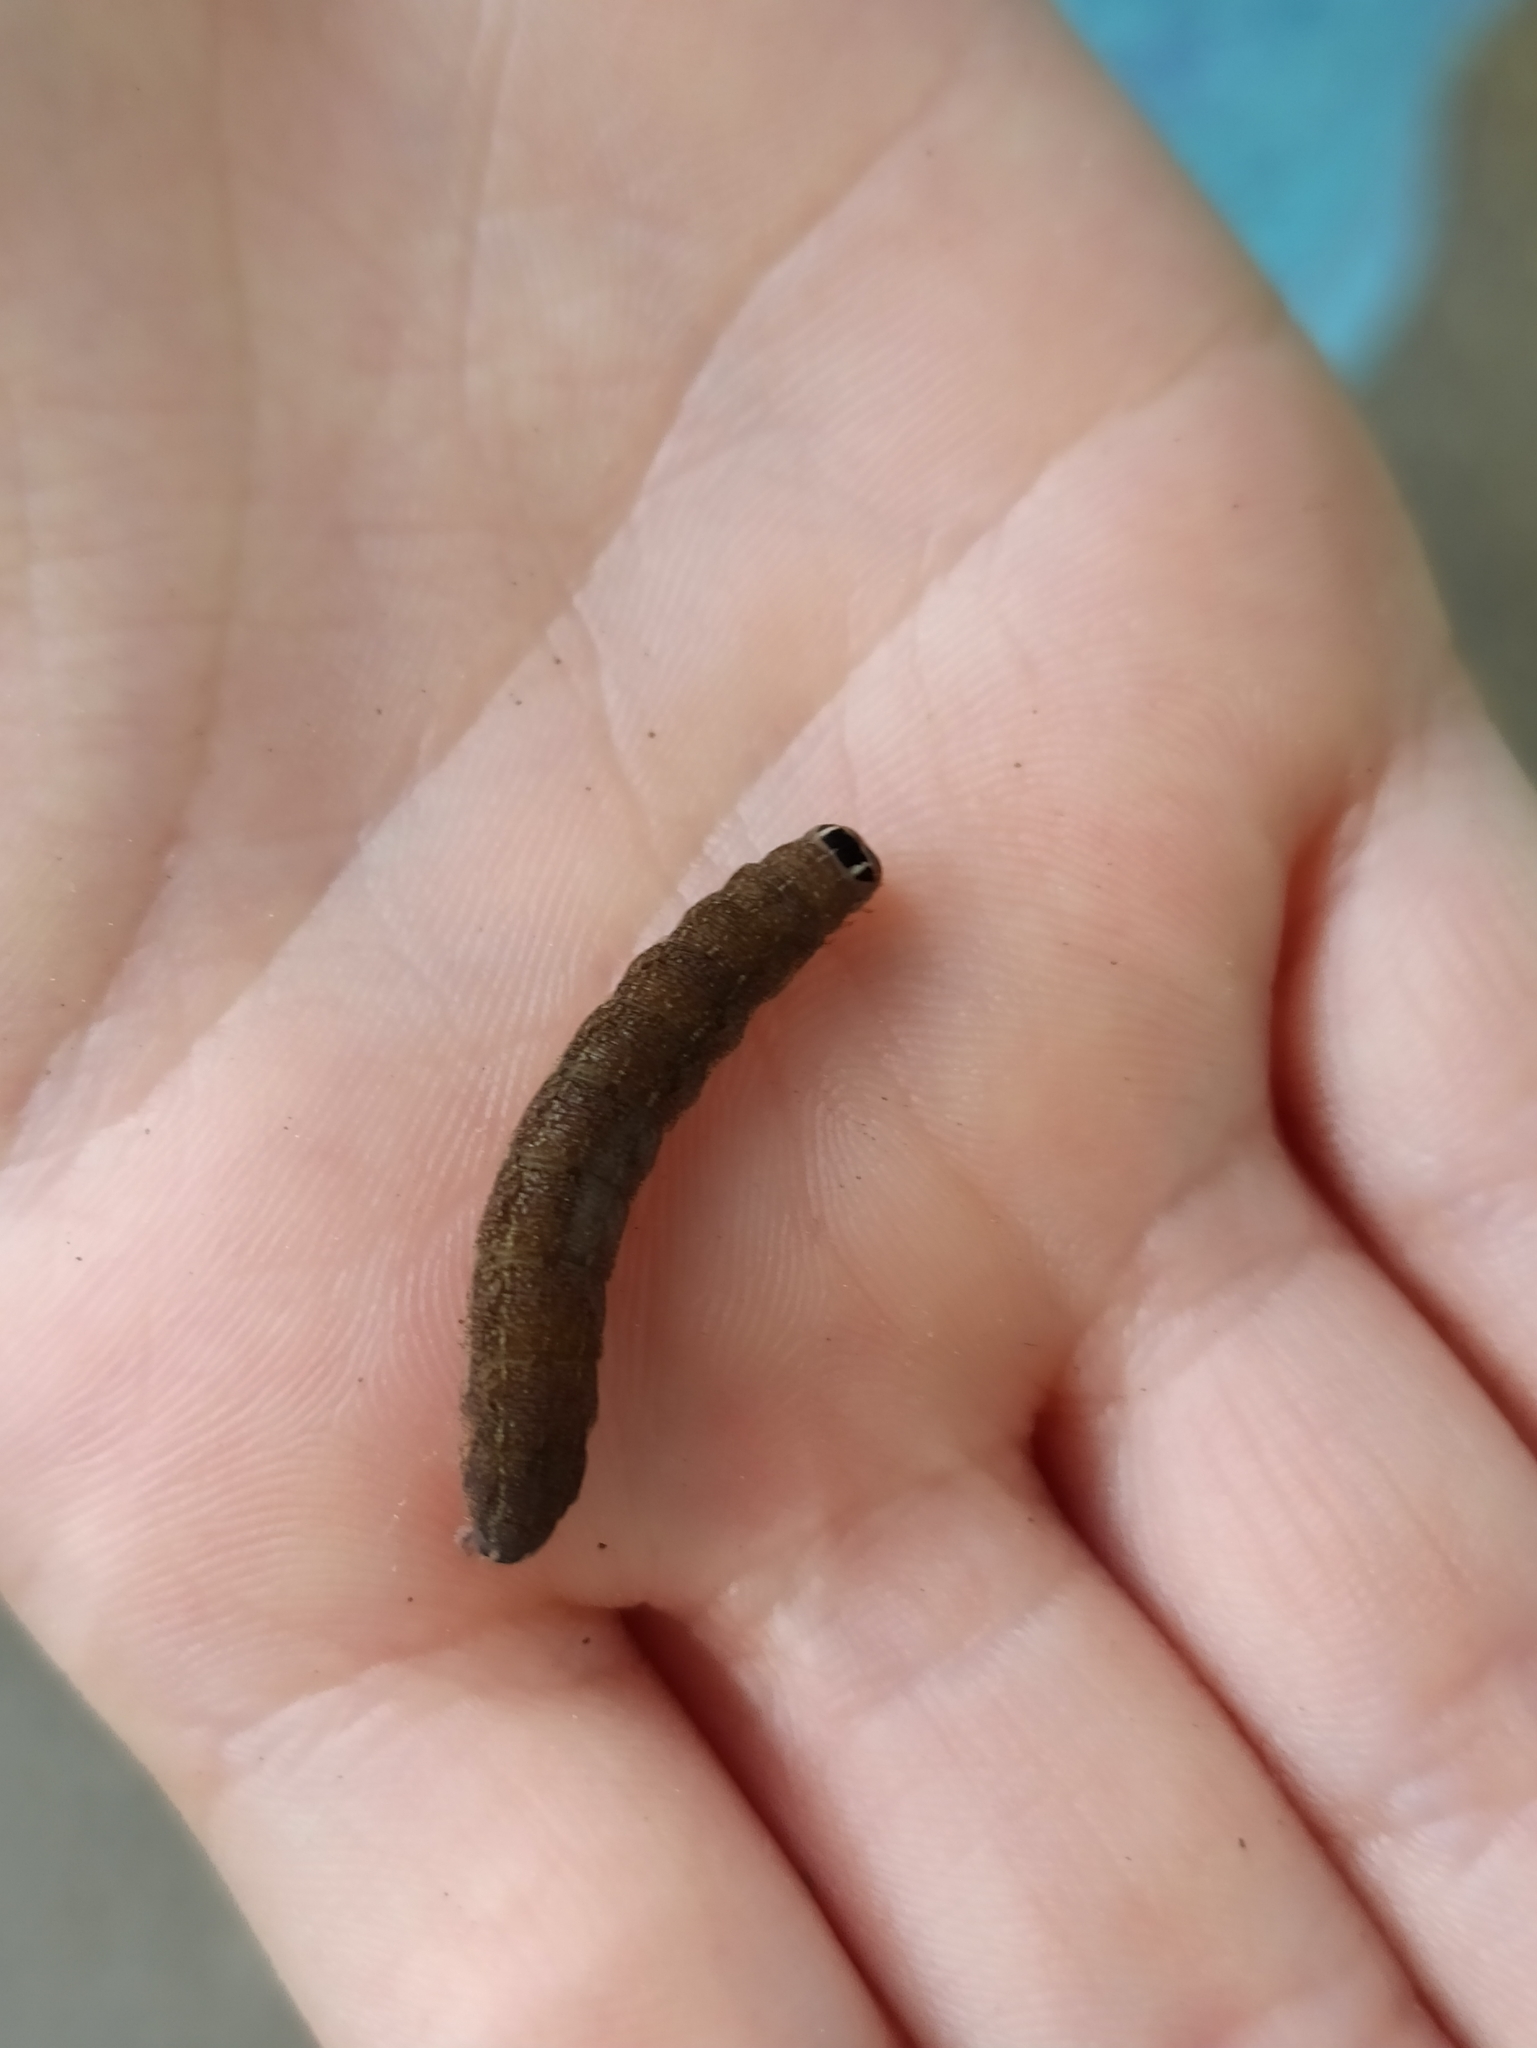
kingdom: Animalia
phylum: Arthropoda
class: Insecta
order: Lepidoptera
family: Noctuidae
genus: Agrochola
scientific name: Agrochola lota
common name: Red-line quaker
